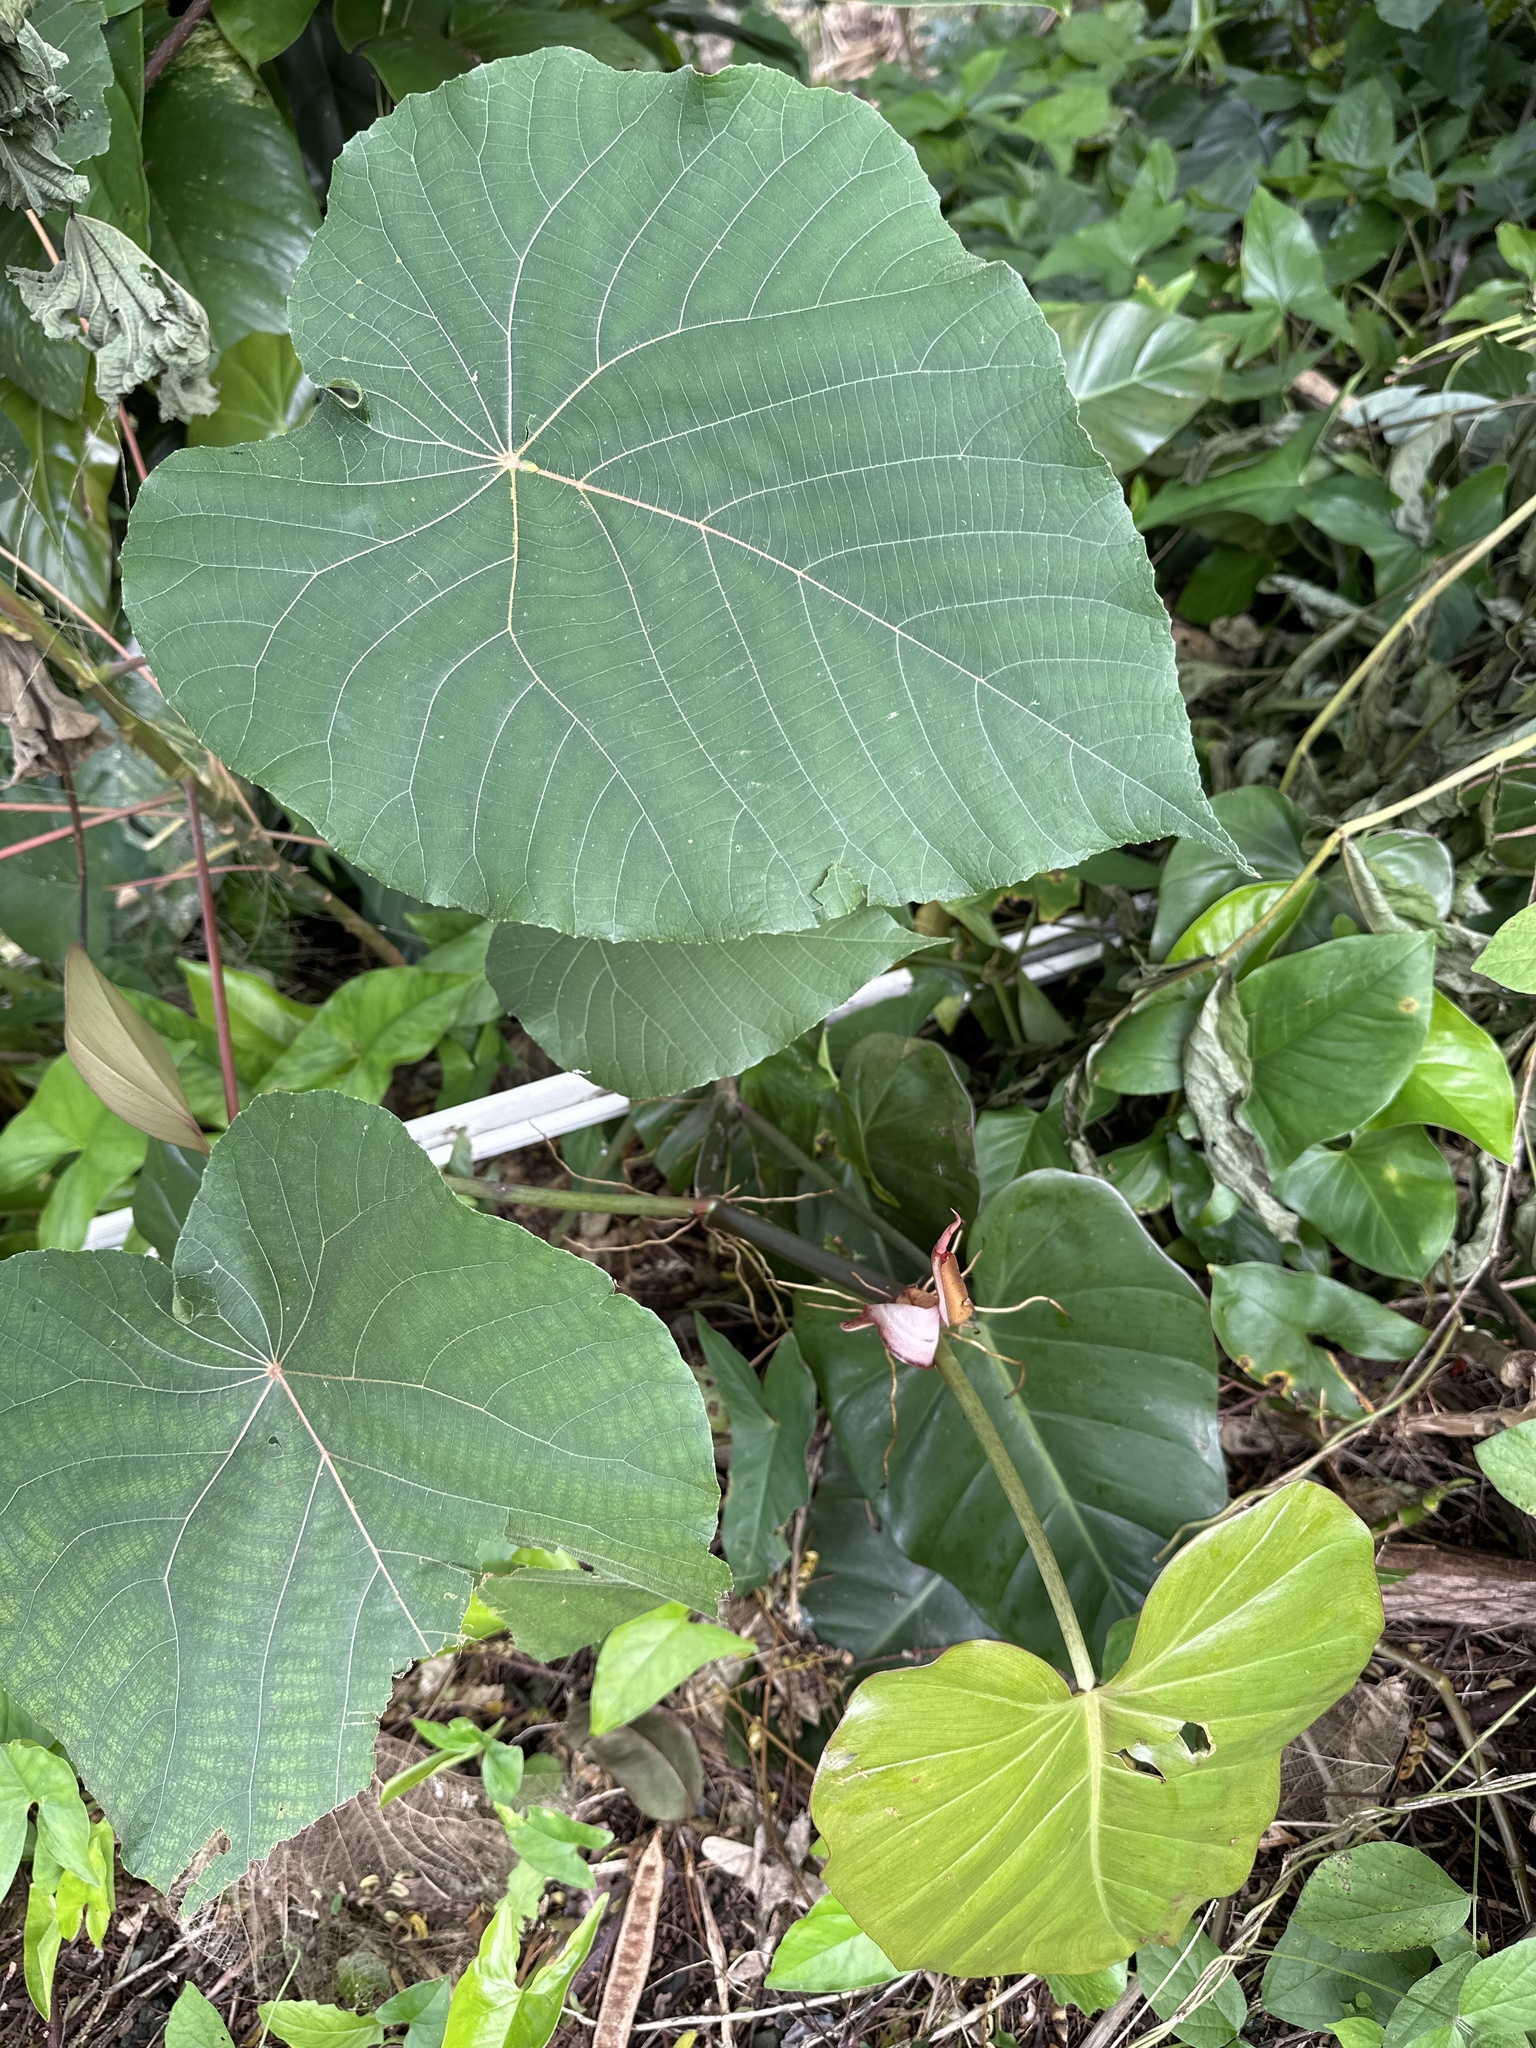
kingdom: Plantae
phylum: Tracheophyta
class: Magnoliopsida
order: Malpighiales
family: Euphorbiaceae
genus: Macaranga
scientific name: Macaranga tanarius
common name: Parasol leaf tree
